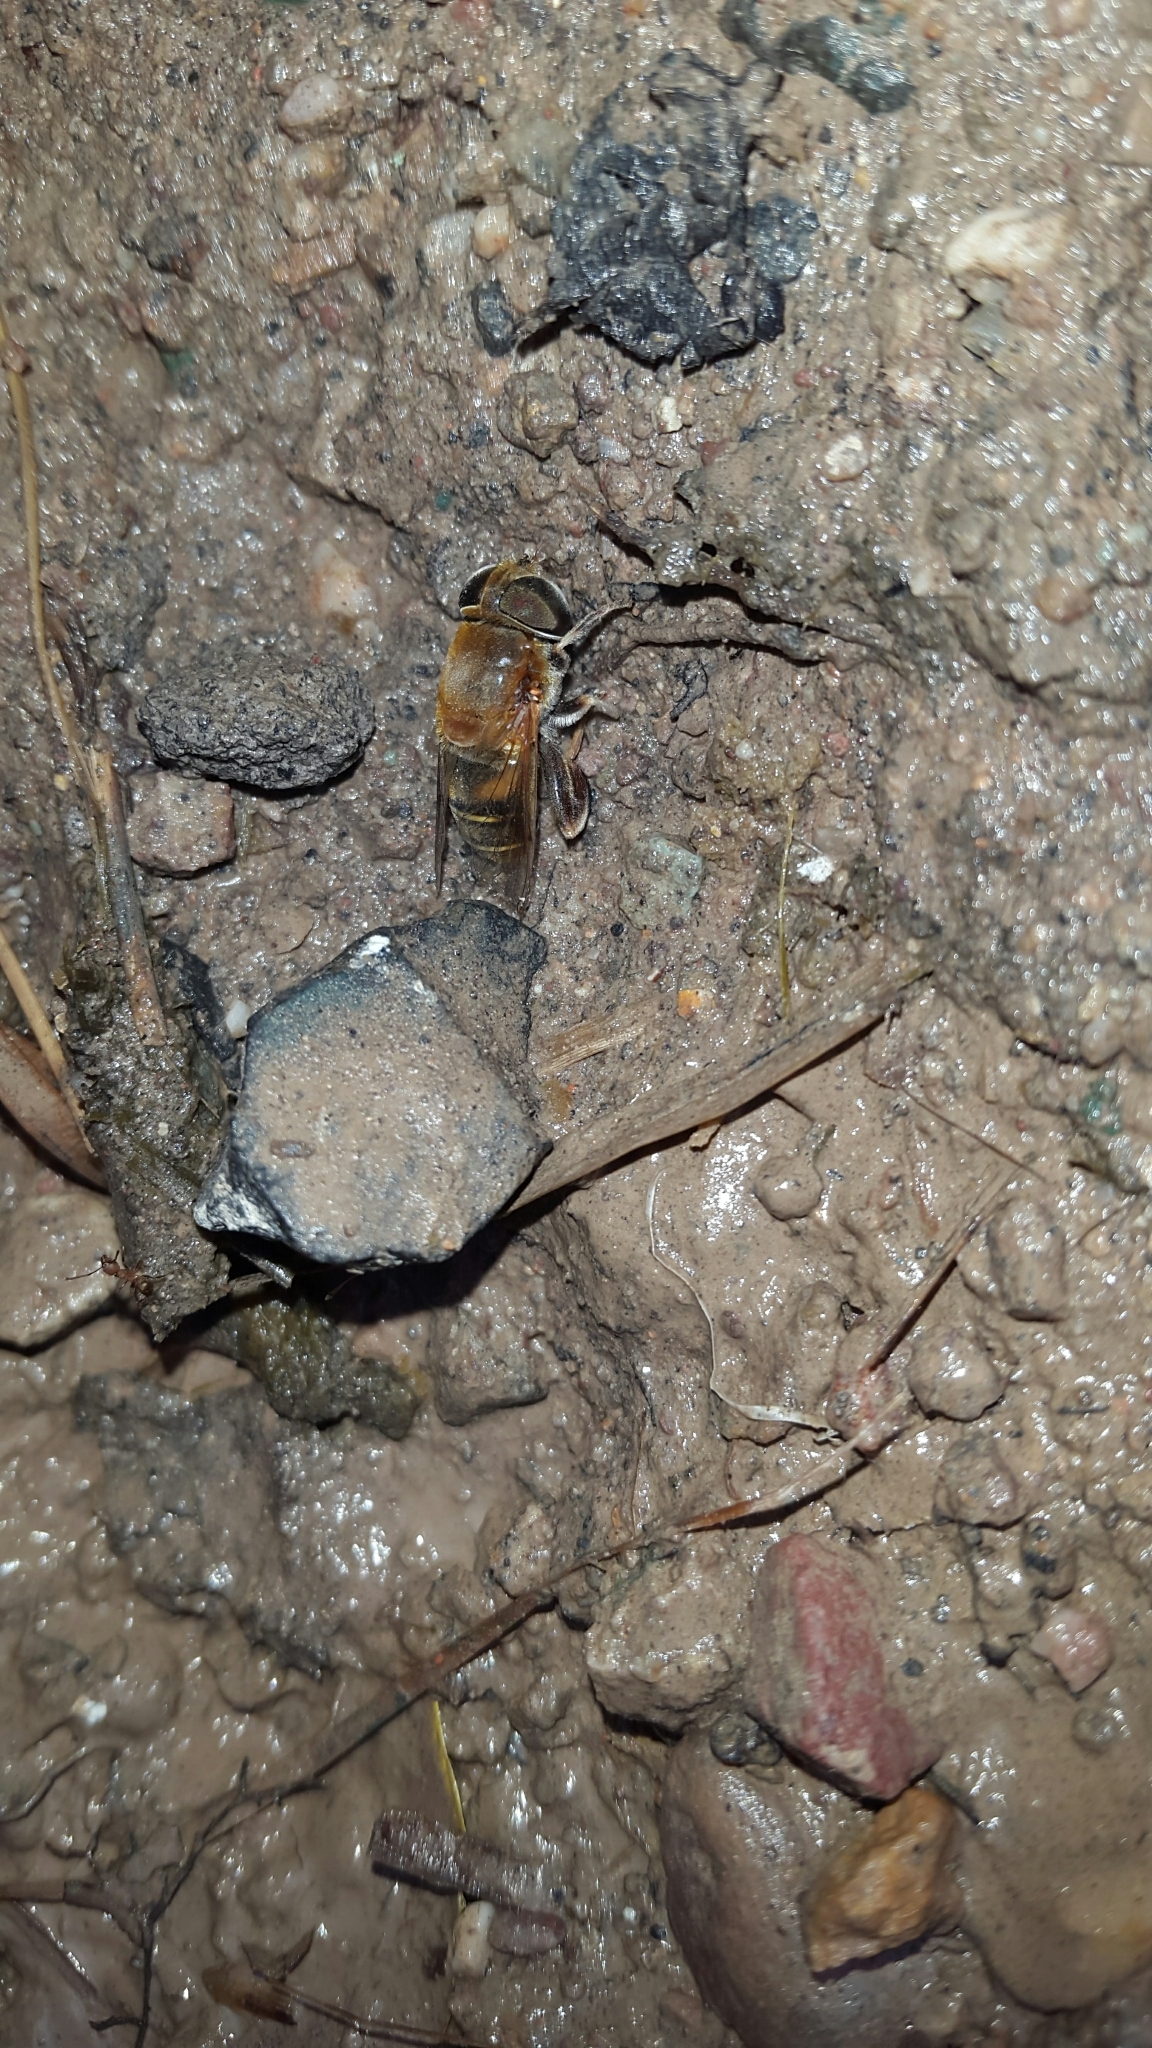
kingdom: Animalia
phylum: Arthropoda
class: Insecta
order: Diptera
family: Syrphidae
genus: Palpada
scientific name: Palpada mexicana
